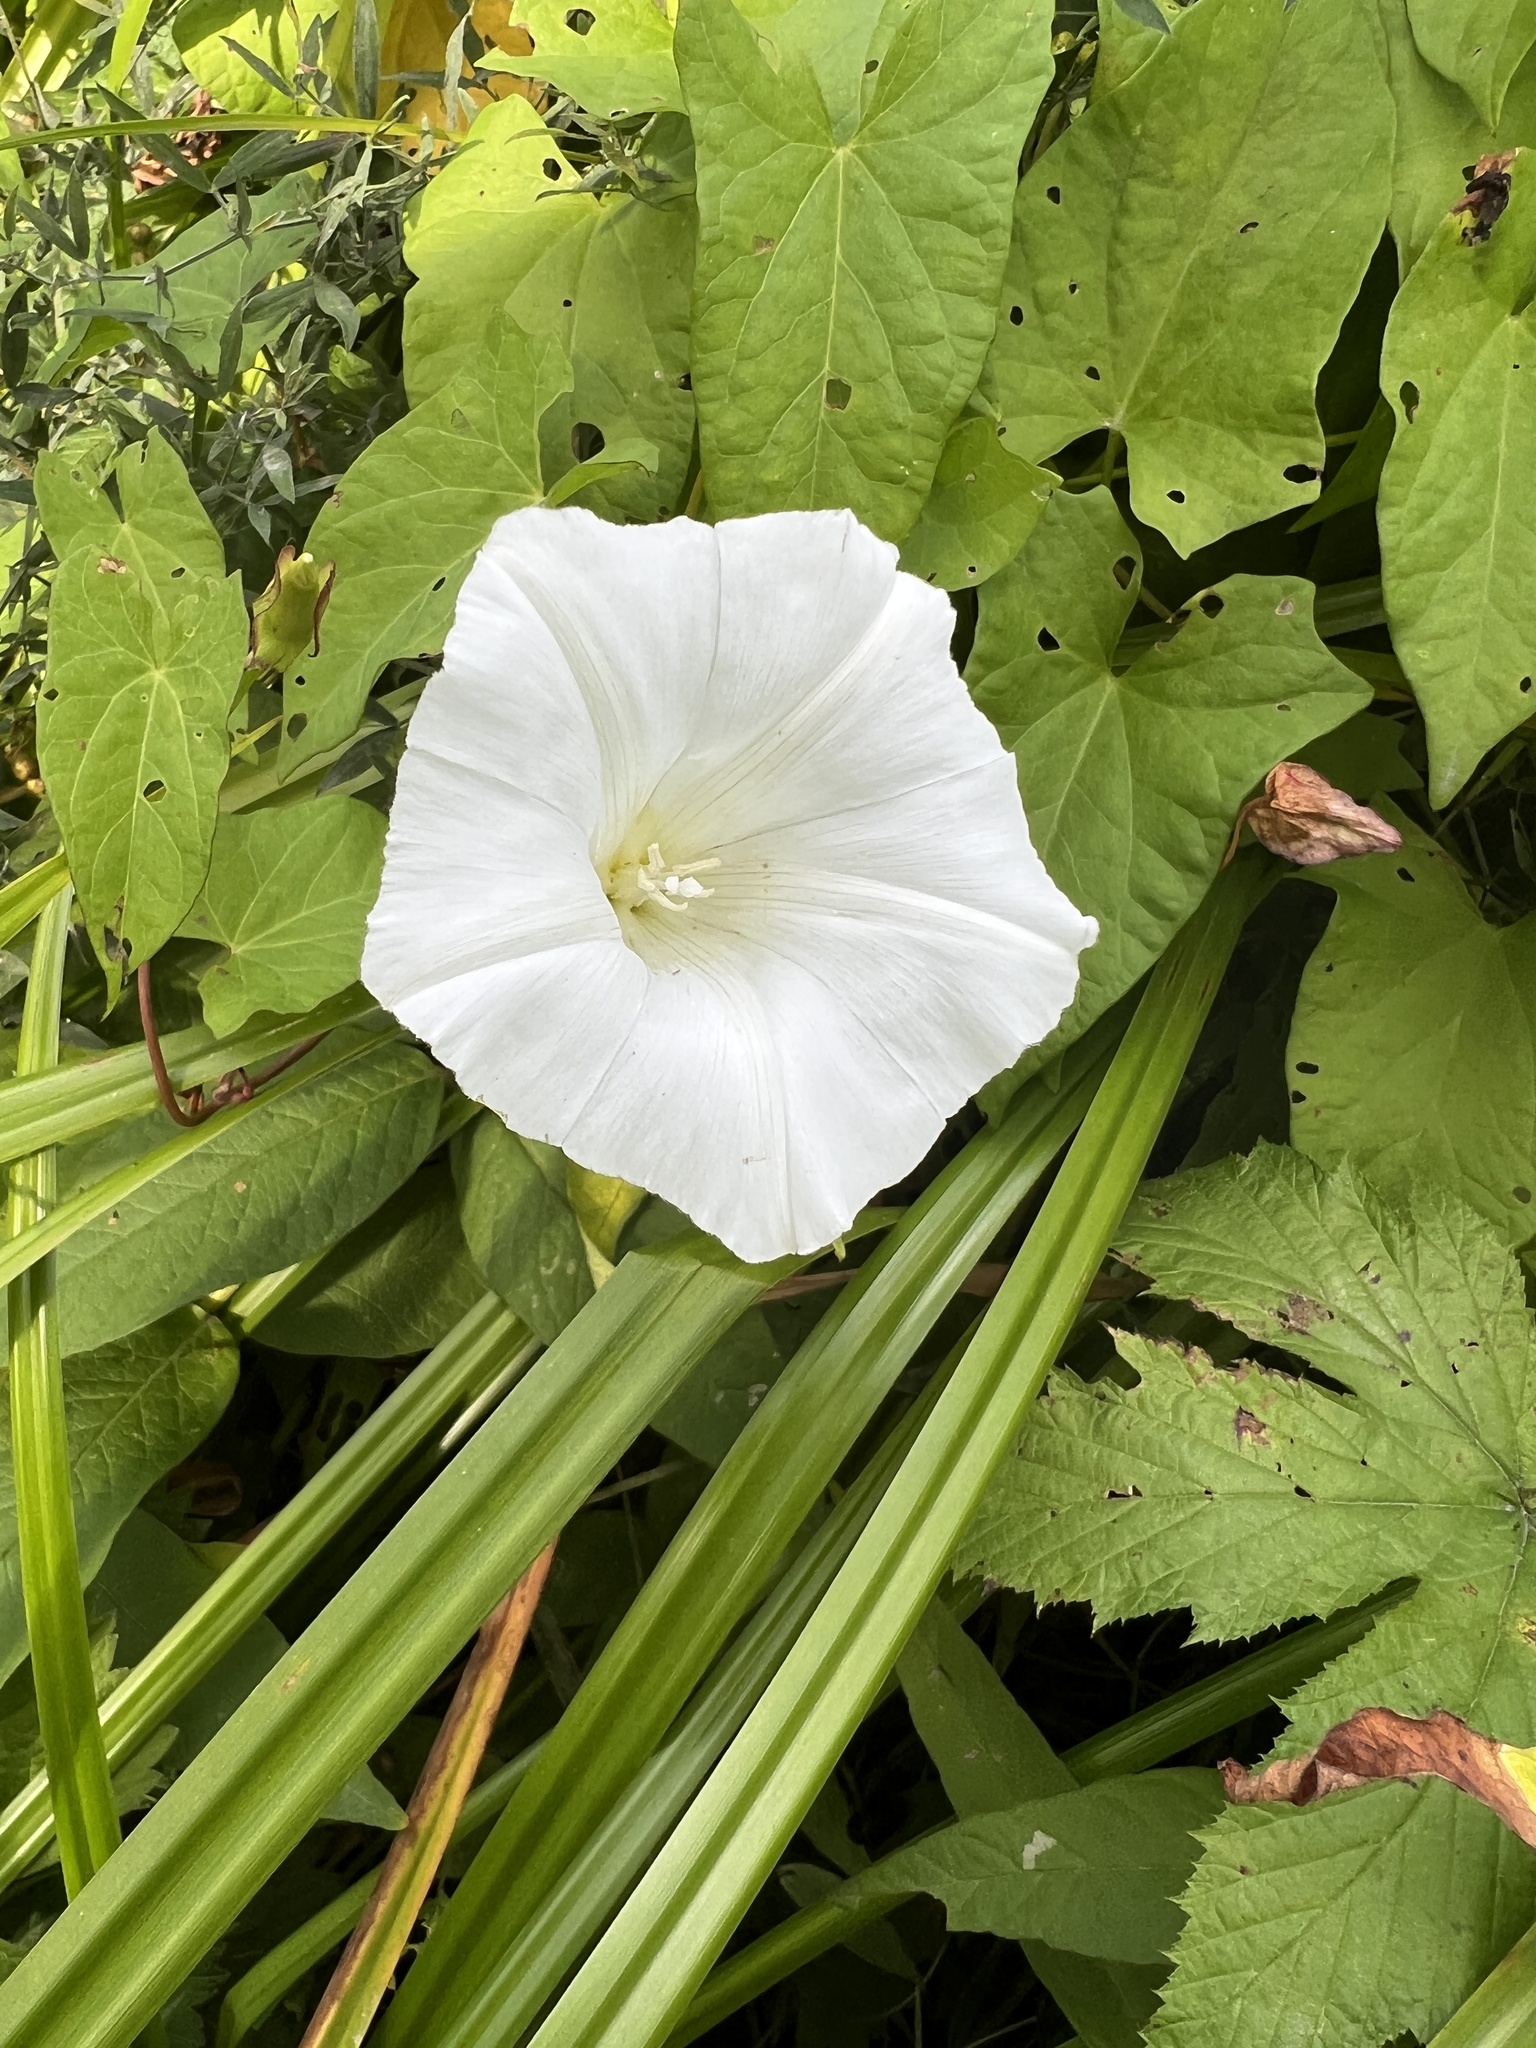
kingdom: Plantae
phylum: Tracheophyta
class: Magnoliopsida
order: Solanales
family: Convolvulaceae
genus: Calystegia
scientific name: Calystegia sepium
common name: Hedge bindweed
